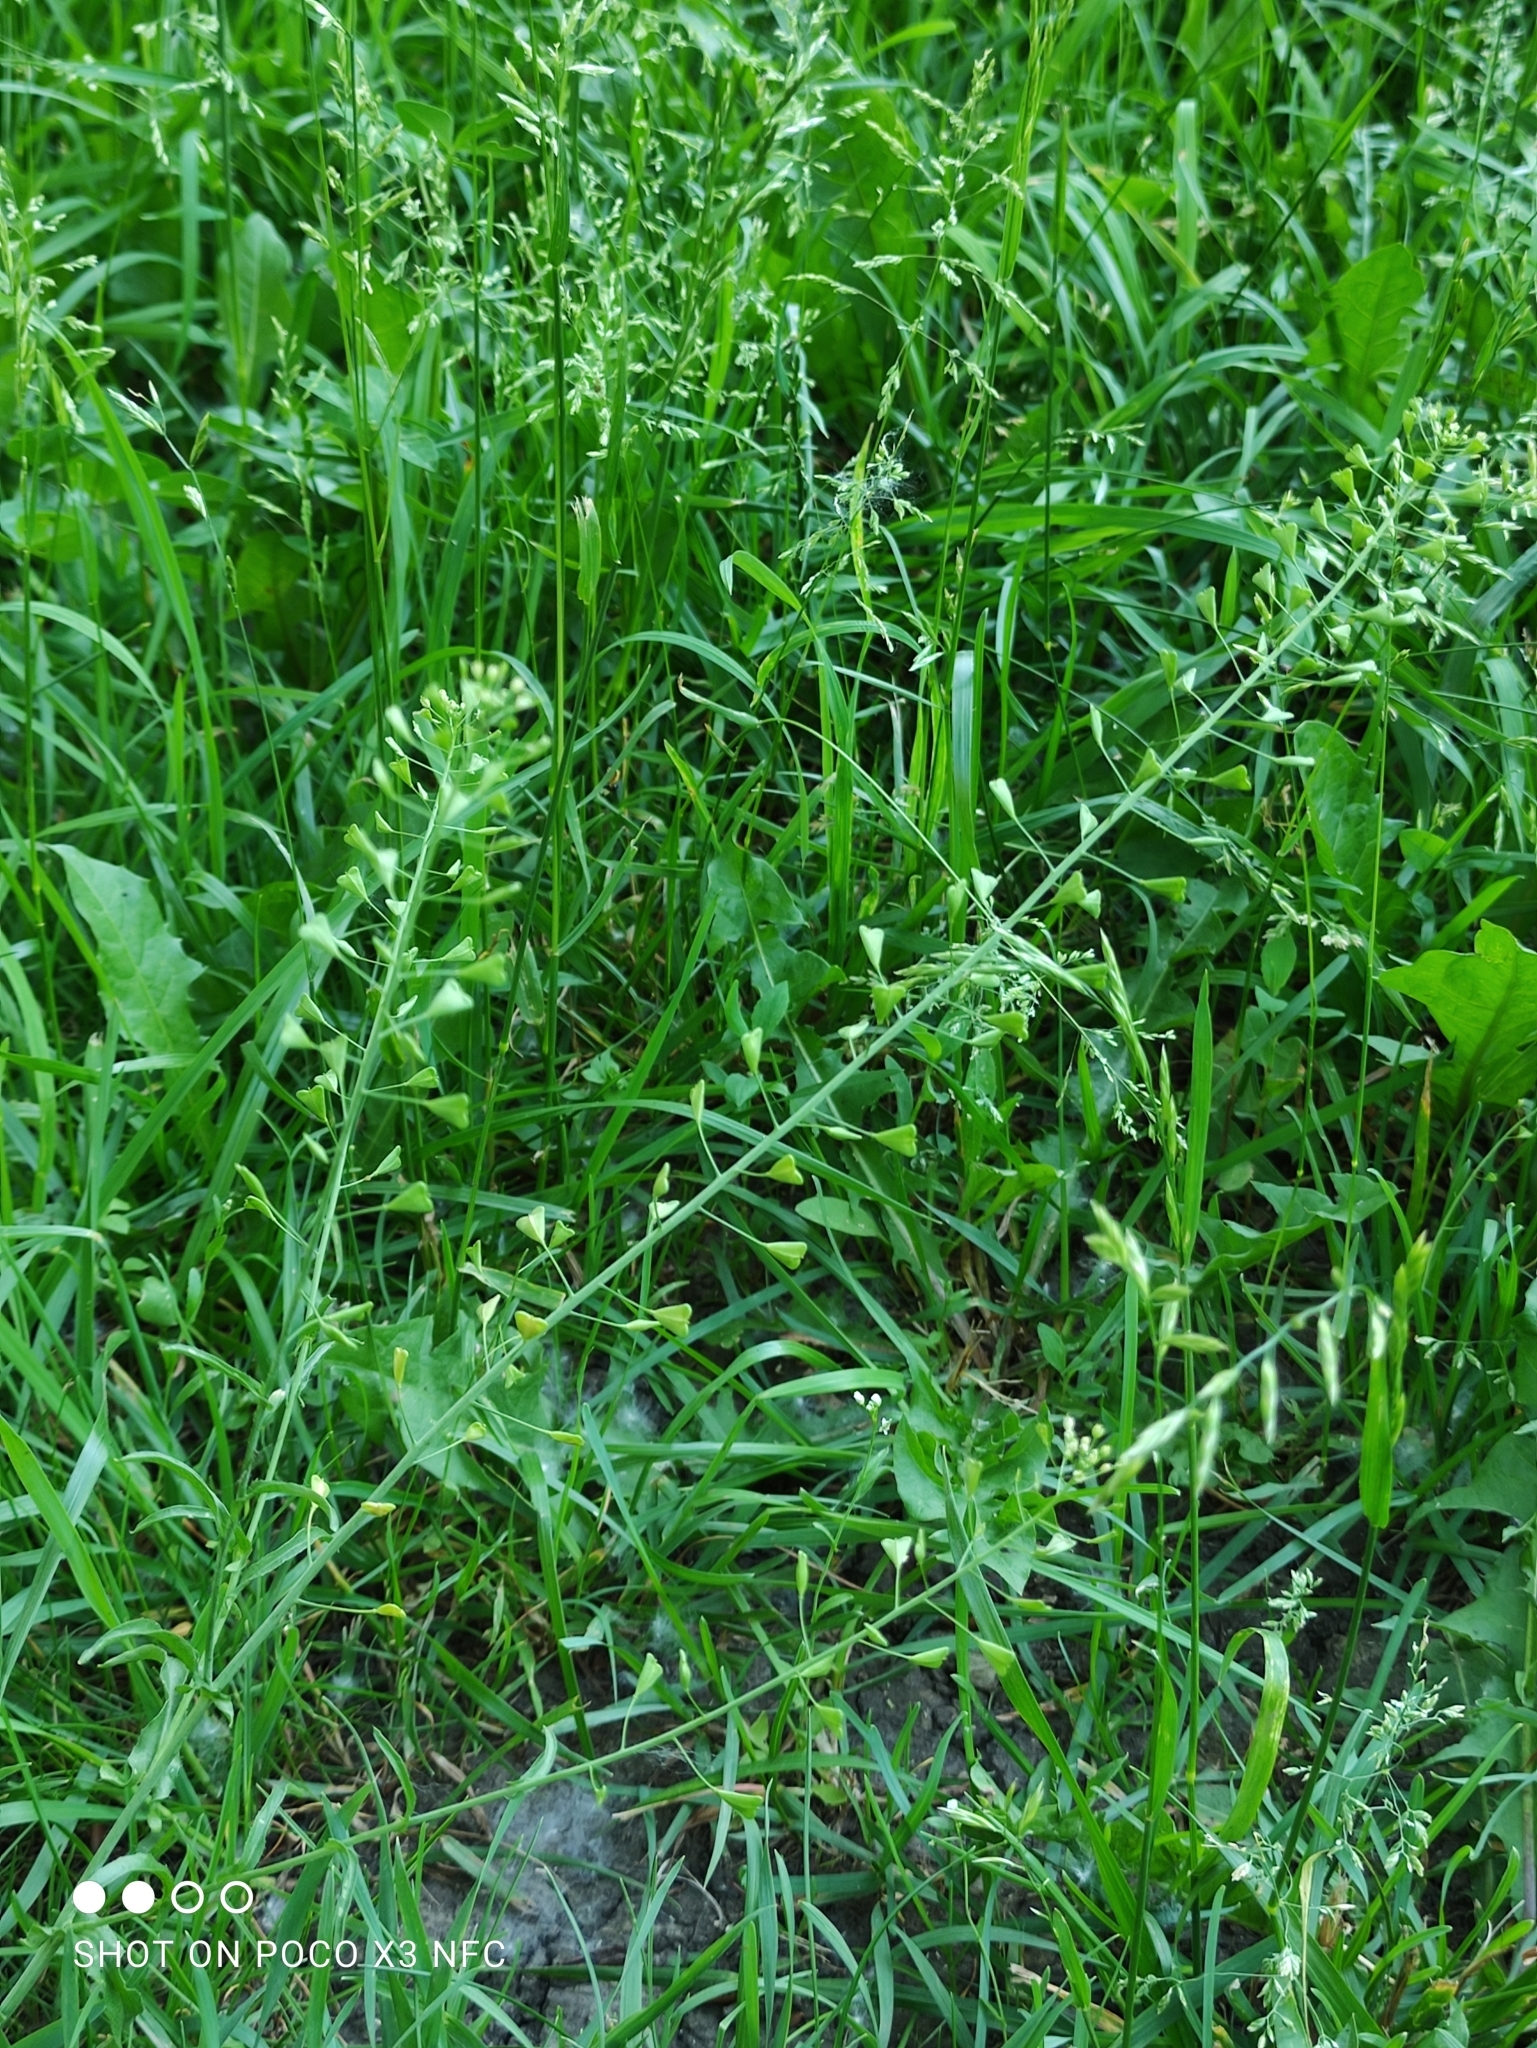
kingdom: Plantae
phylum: Tracheophyta
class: Magnoliopsida
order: Brassicales
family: Brassicaceae
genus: Capsella
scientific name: Capsella bursa-pastoris
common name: Shepherd's purse
